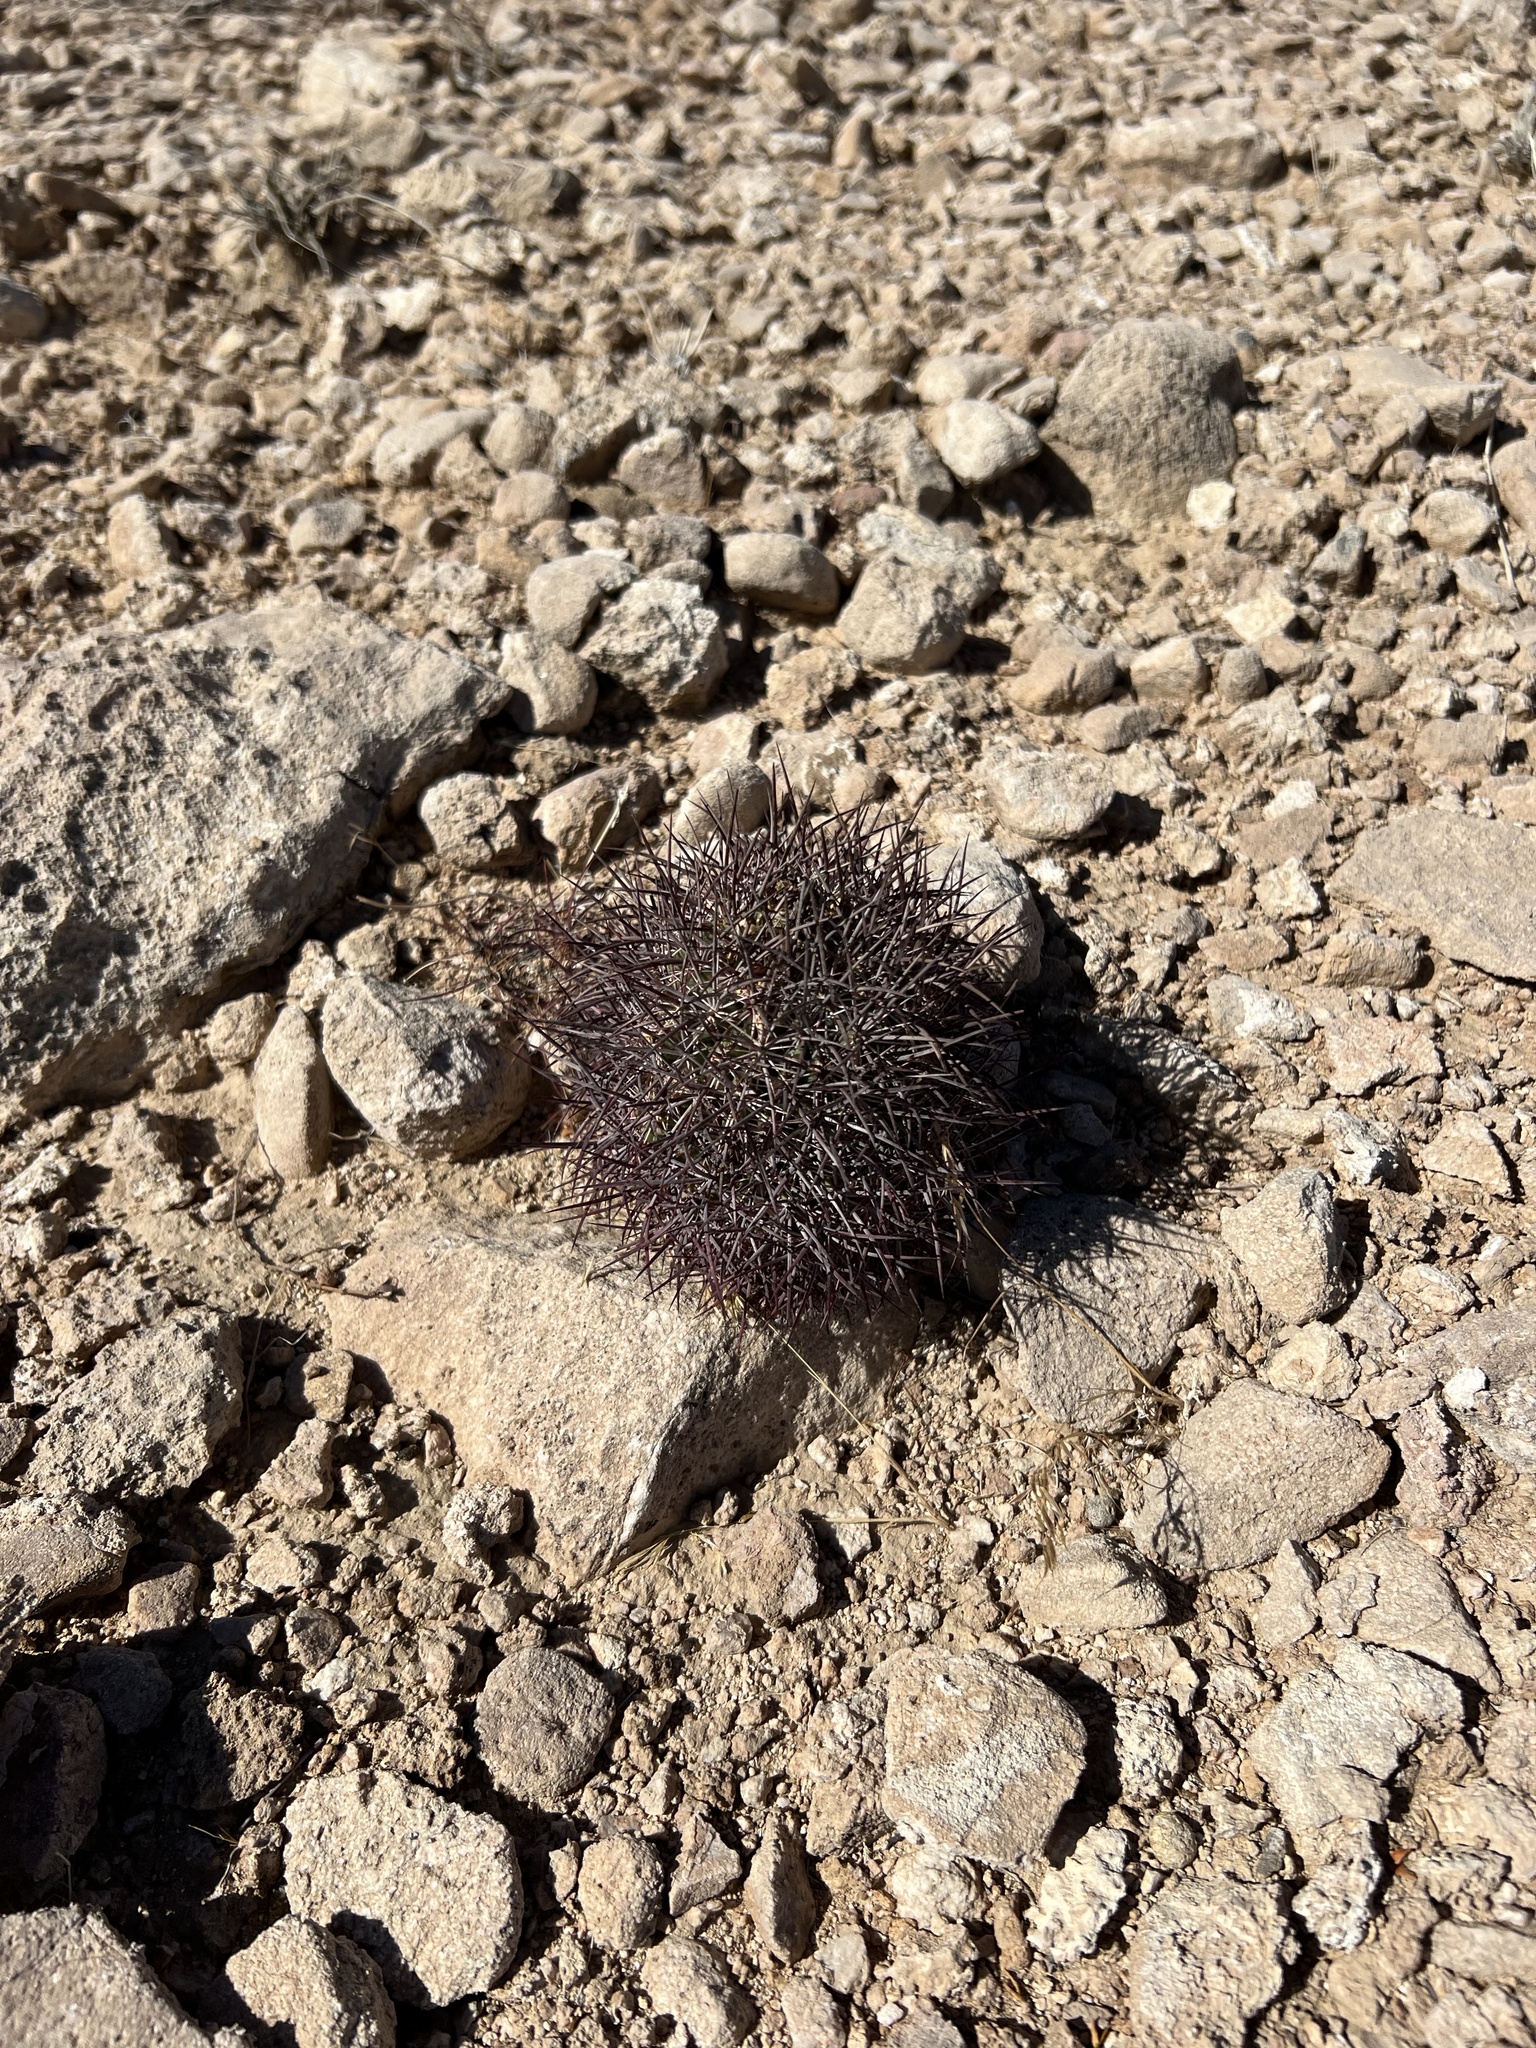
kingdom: Plantae
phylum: Tracheophyta
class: Magnoliopsida
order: Caryophyllales
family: Cactaceae
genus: Sclerocactus
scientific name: Sclerocactus johnsonii
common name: Eight-spine fishhook cactus
